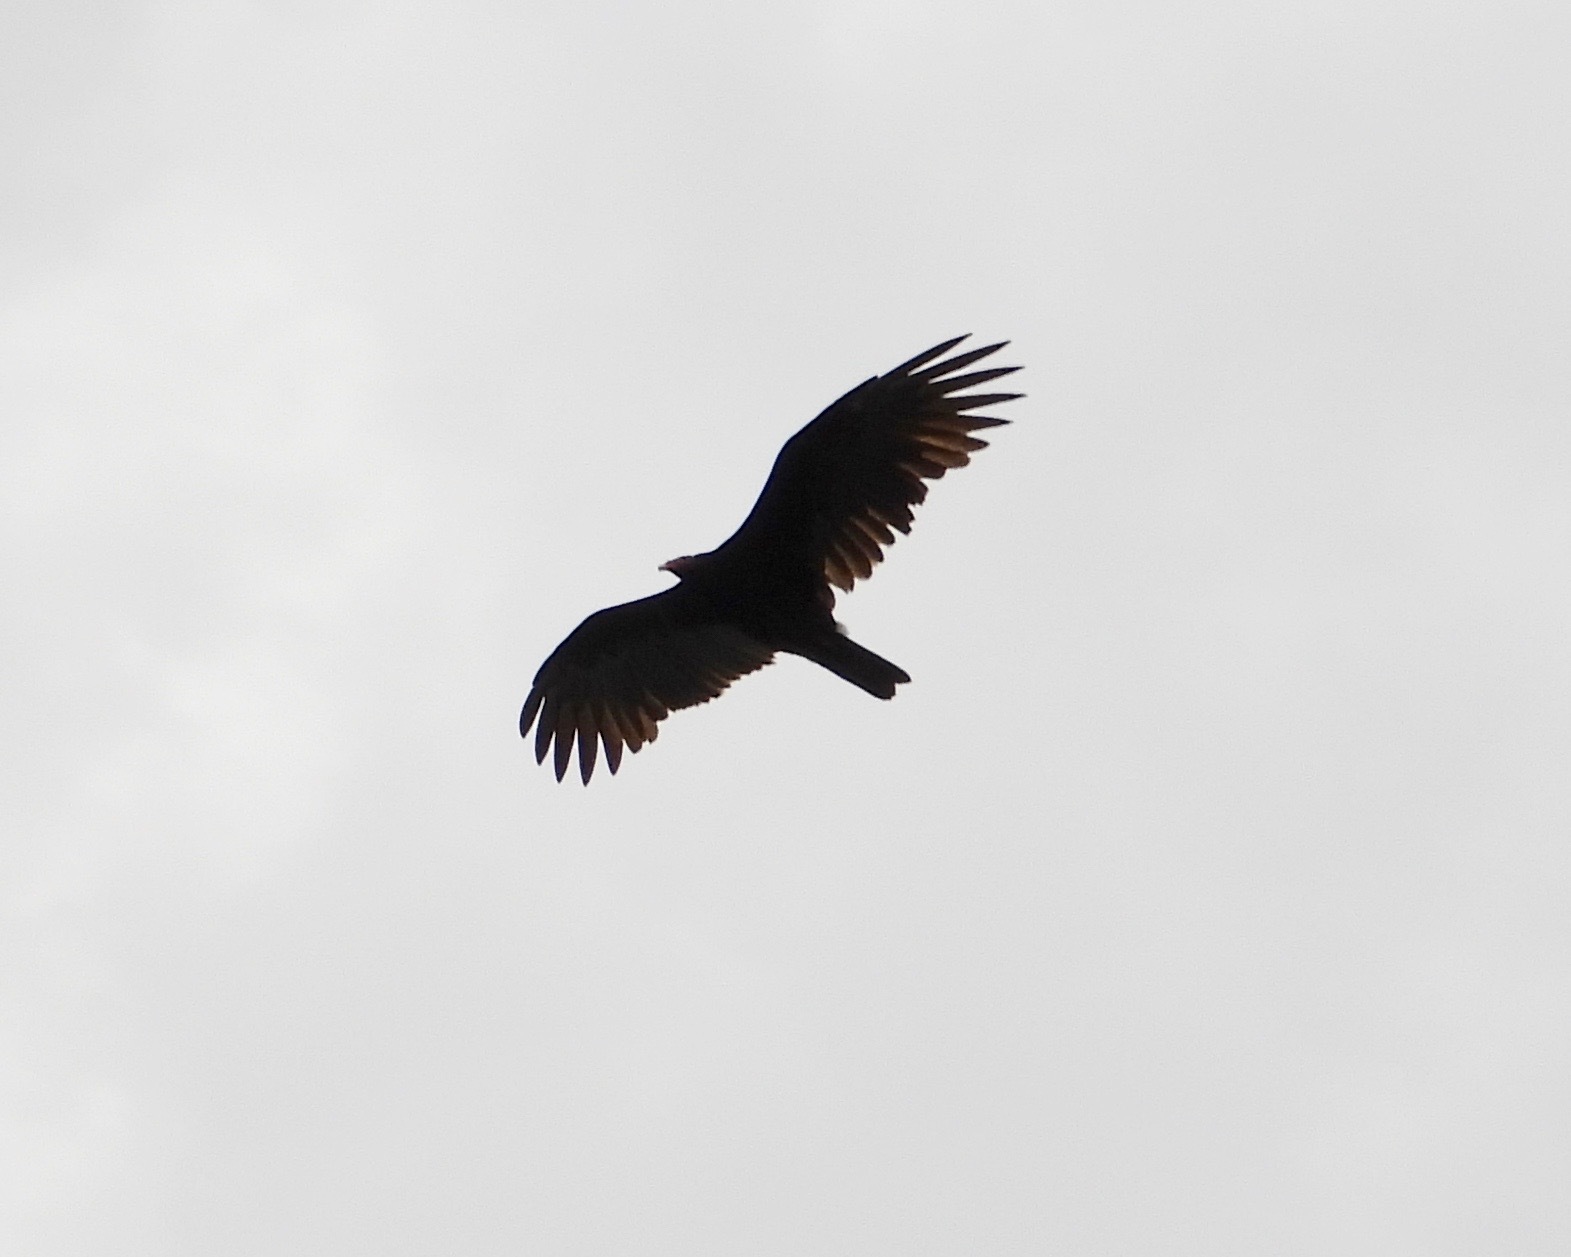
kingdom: Animalia
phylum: Chordata
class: Aves
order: Accipitriformes
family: Cathartidae
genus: Cathartes
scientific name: Cathartes aura
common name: Turkey vulture
